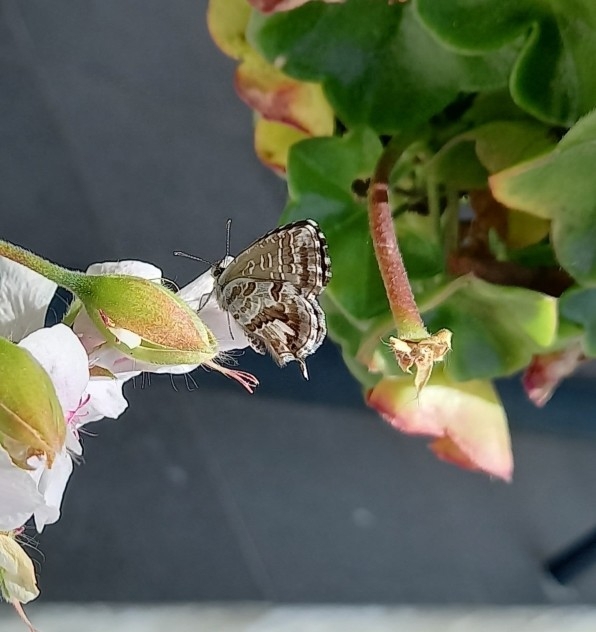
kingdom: Animalia
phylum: Arthropoda
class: Insecta
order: Lepidoptera
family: Lycaenidae
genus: Cacyreus
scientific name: Cacyreus marshalli
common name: Geranium bronze
